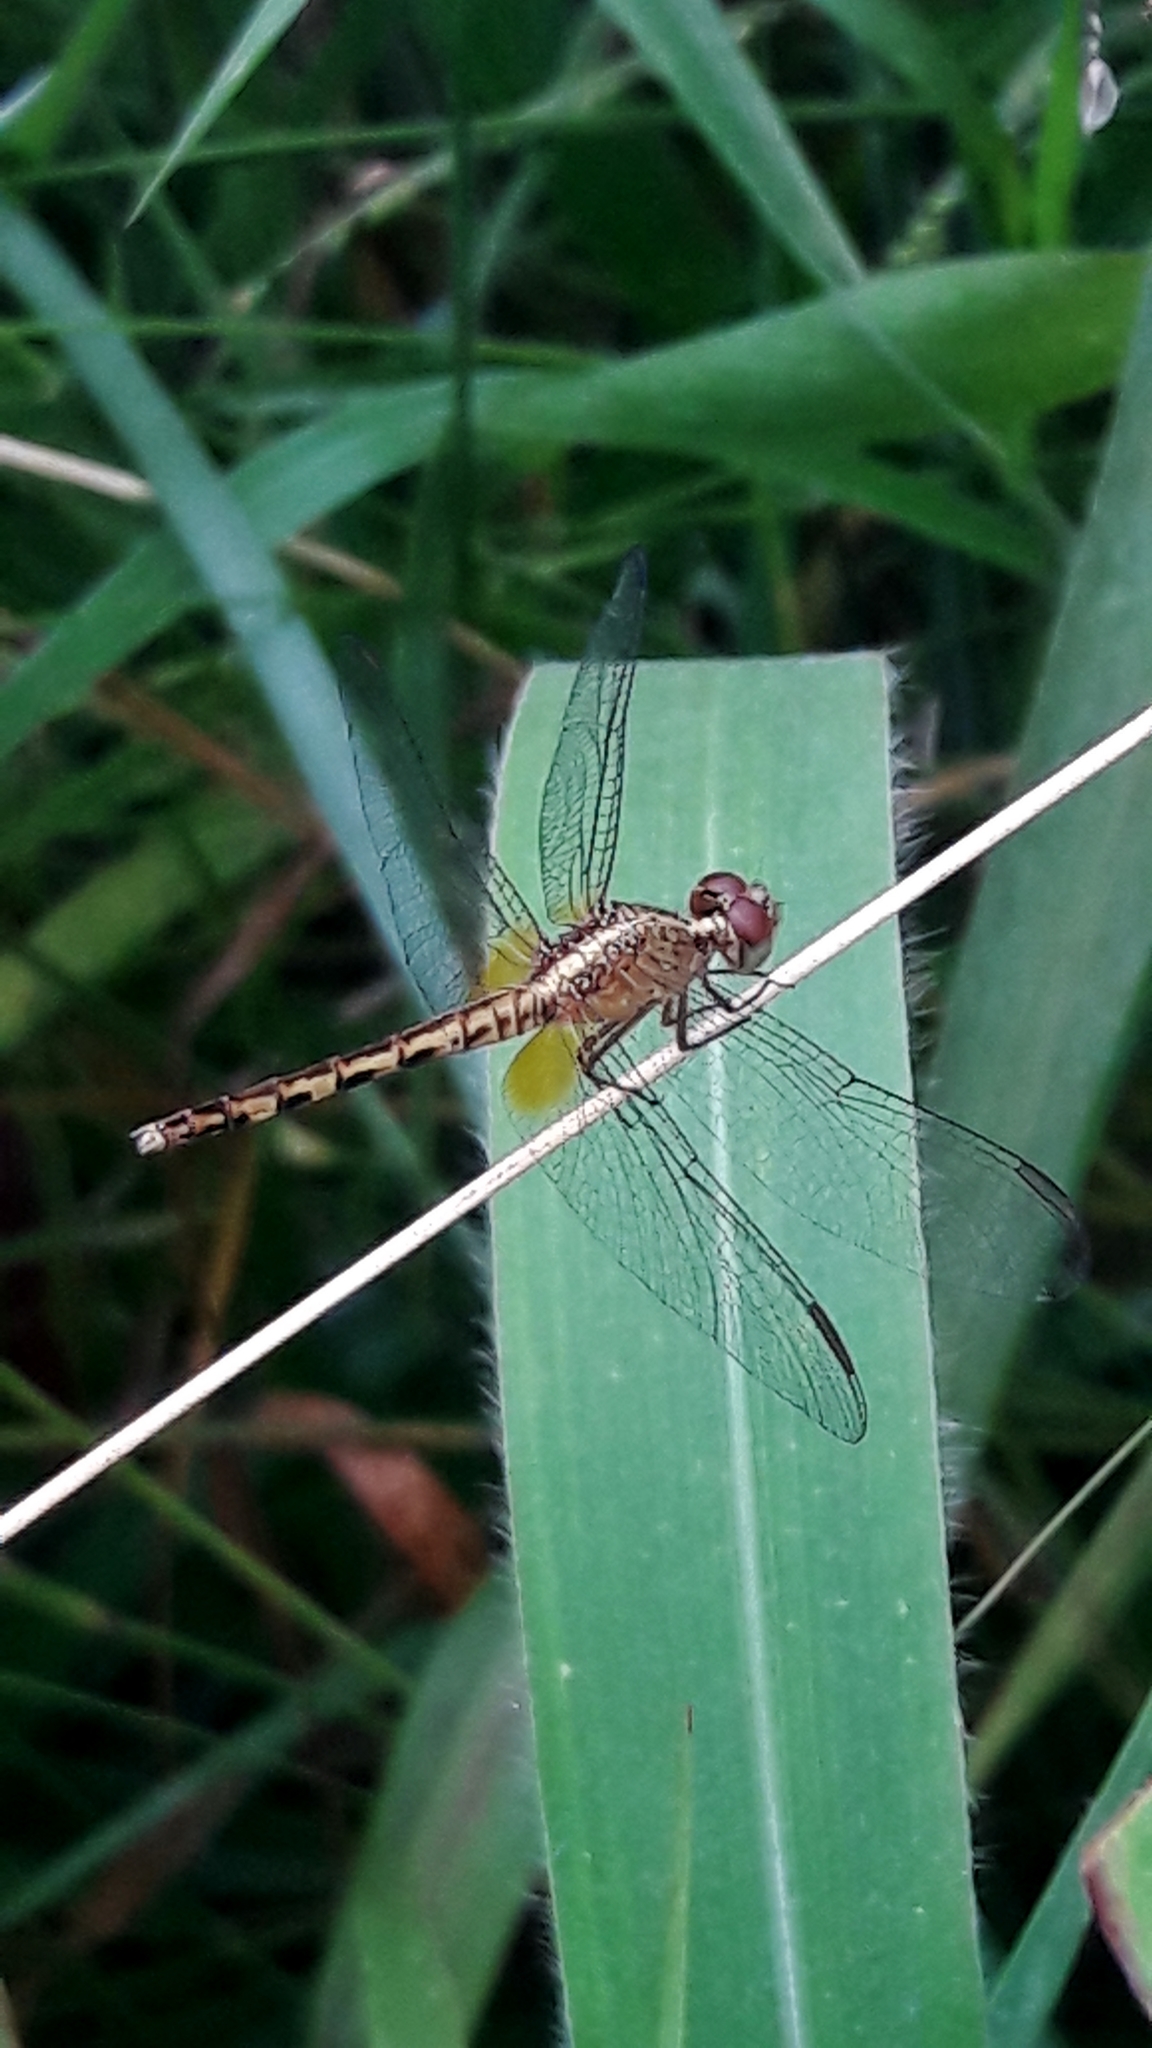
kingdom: Animalia
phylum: Arthropoda
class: Insecta
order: Odonata
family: Libellulidae
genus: Erythrodiplax
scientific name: Erythrodiplax umbrata
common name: Band-winged dragonlet
